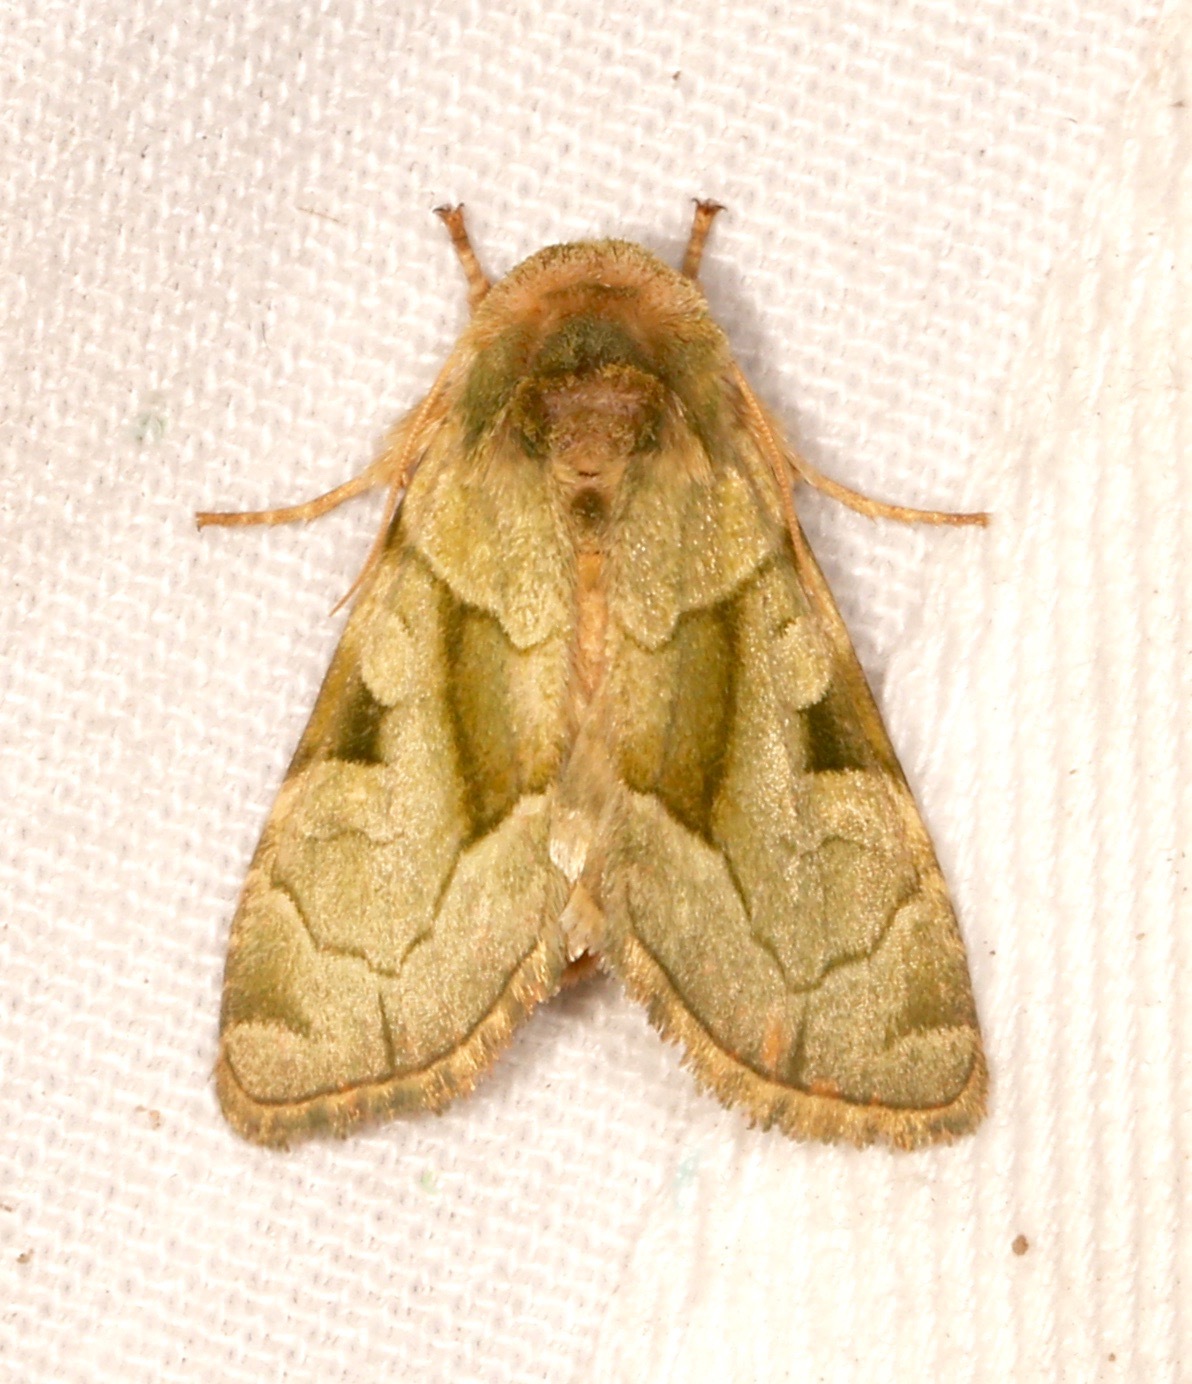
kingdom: Animalia
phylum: Arthropoda
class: Insecta
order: Lepidoptera
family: Noctuidae
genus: Oslaria
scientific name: Oslaria viridifera
